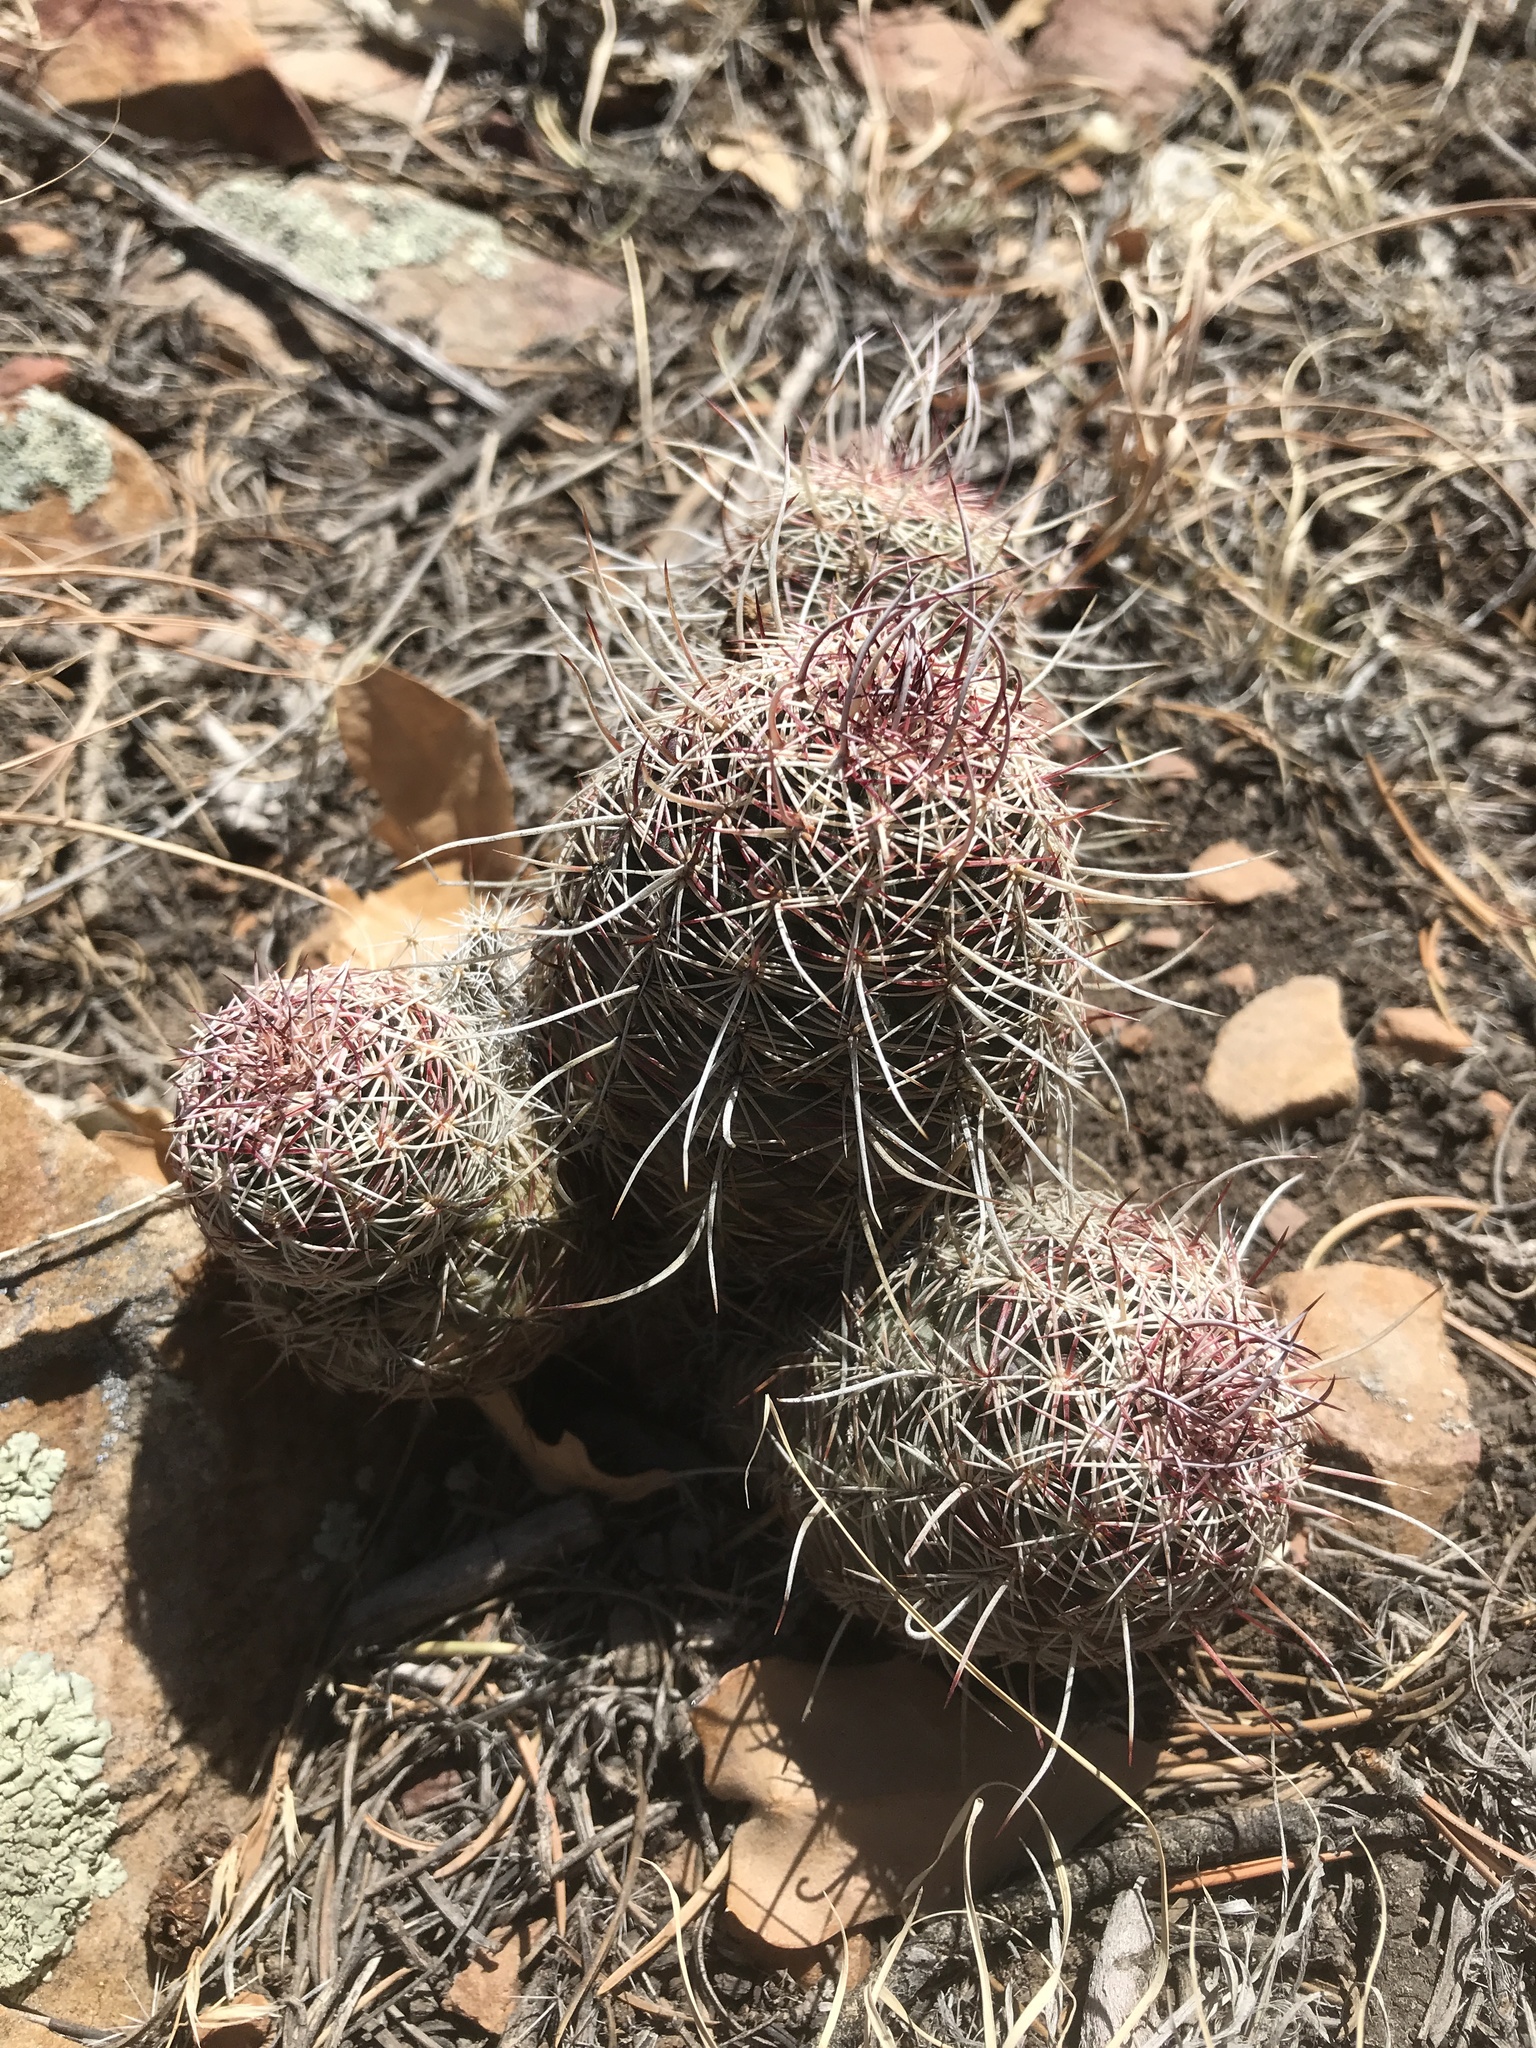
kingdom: Plantae
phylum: Tracheophyta
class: Magnoliopsida
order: Caryophyllales
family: Cactaceae
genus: Echinocereus
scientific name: Echinocereus viridiflorus
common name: Nylon hedgehog cactus
